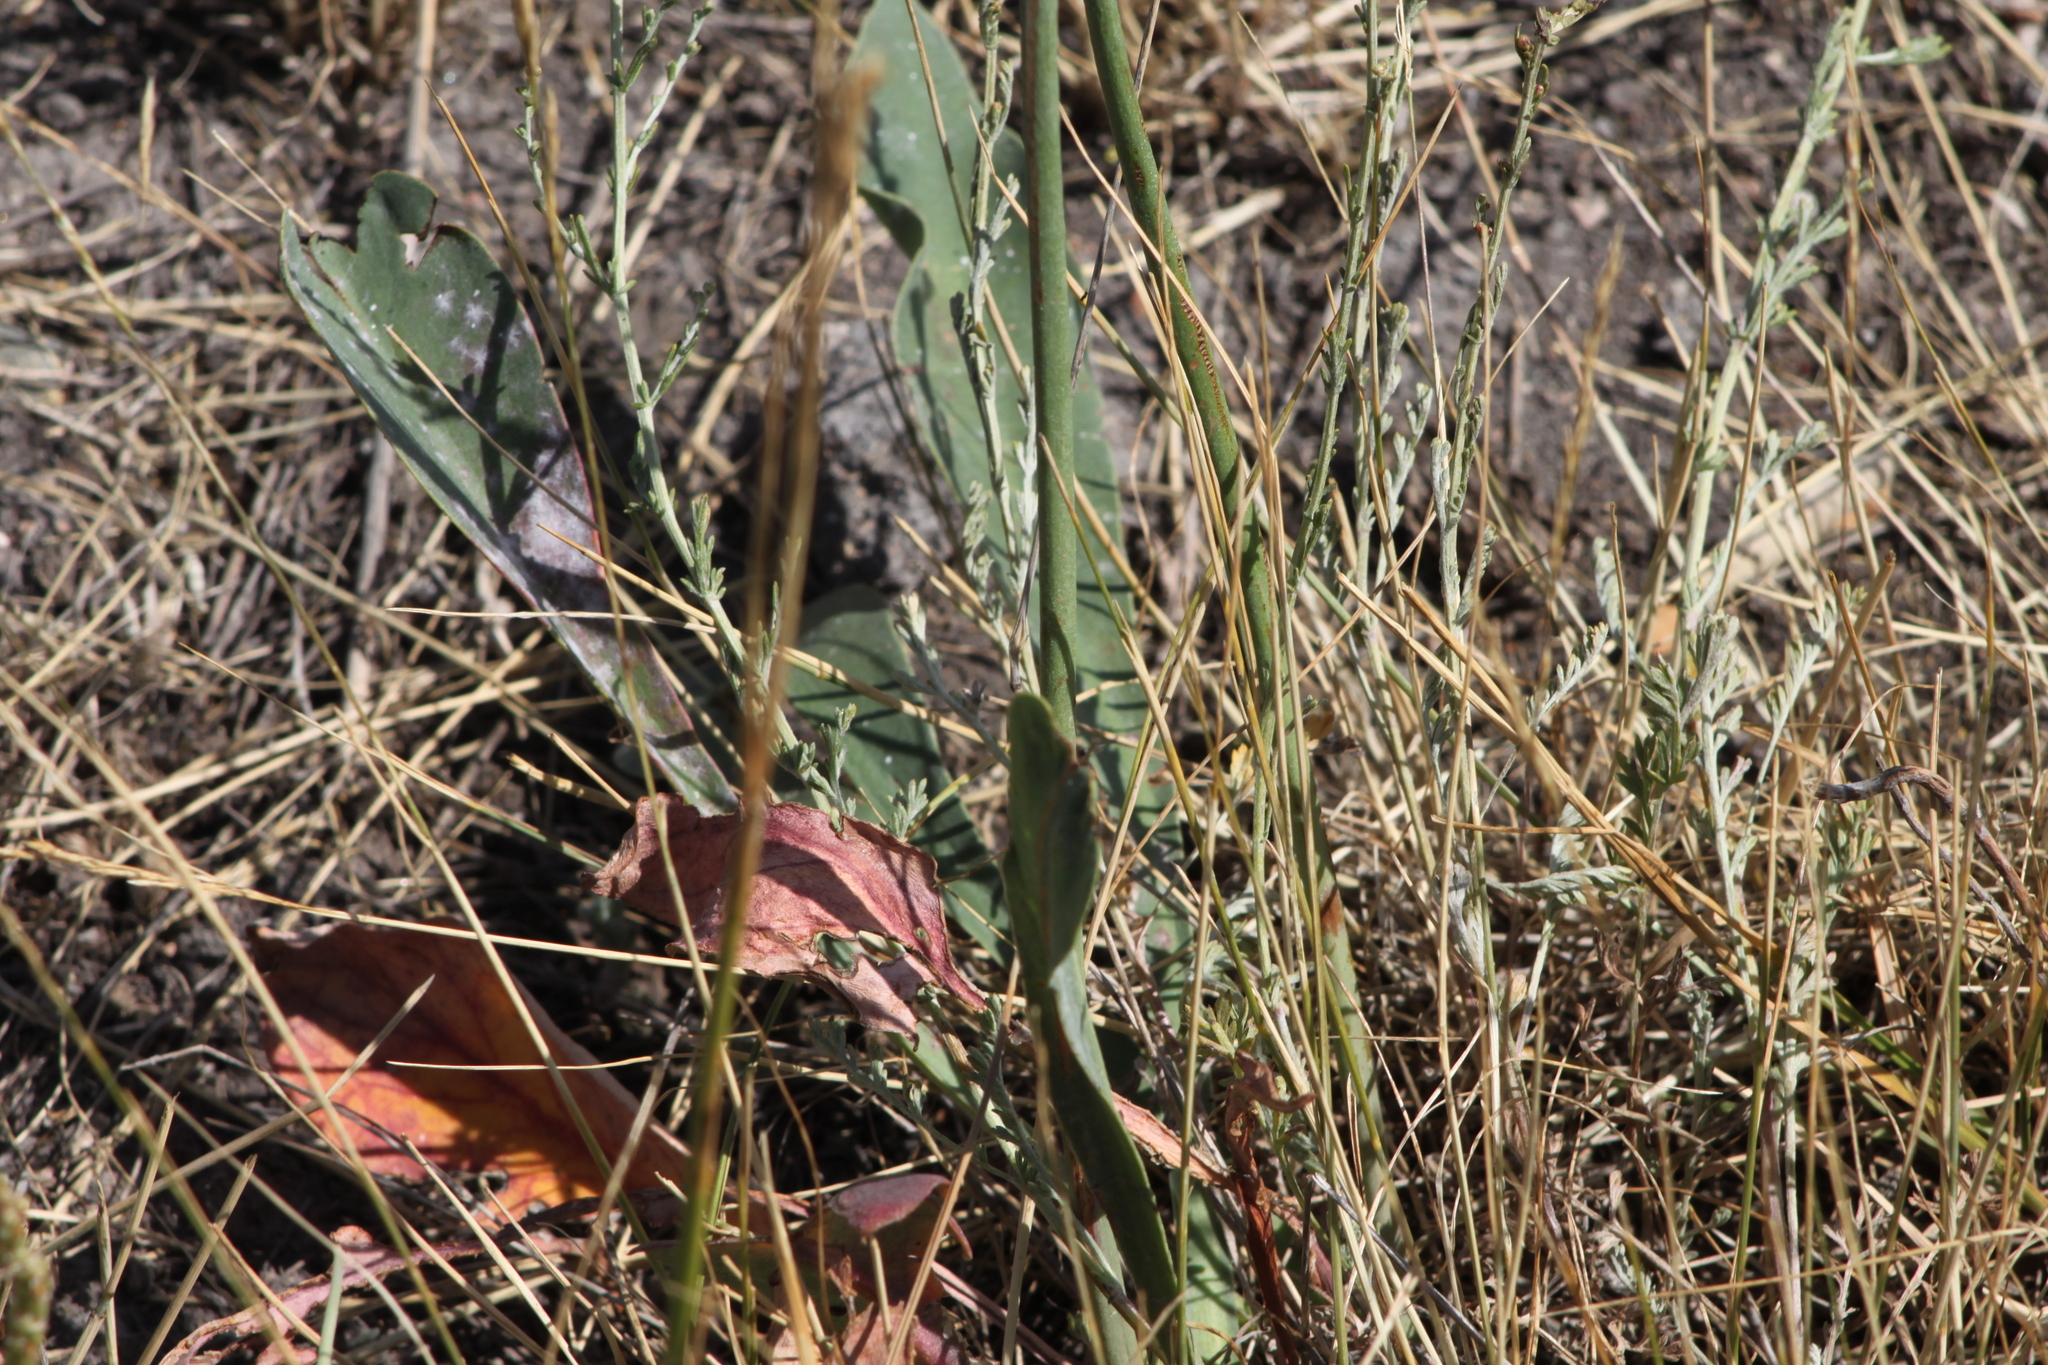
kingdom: Plantae
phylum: Tracheophyta
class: Magnoliopsida
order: Caryophyllales
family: Plumbaginaceae
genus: Limonium
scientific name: Limonium gmelini
